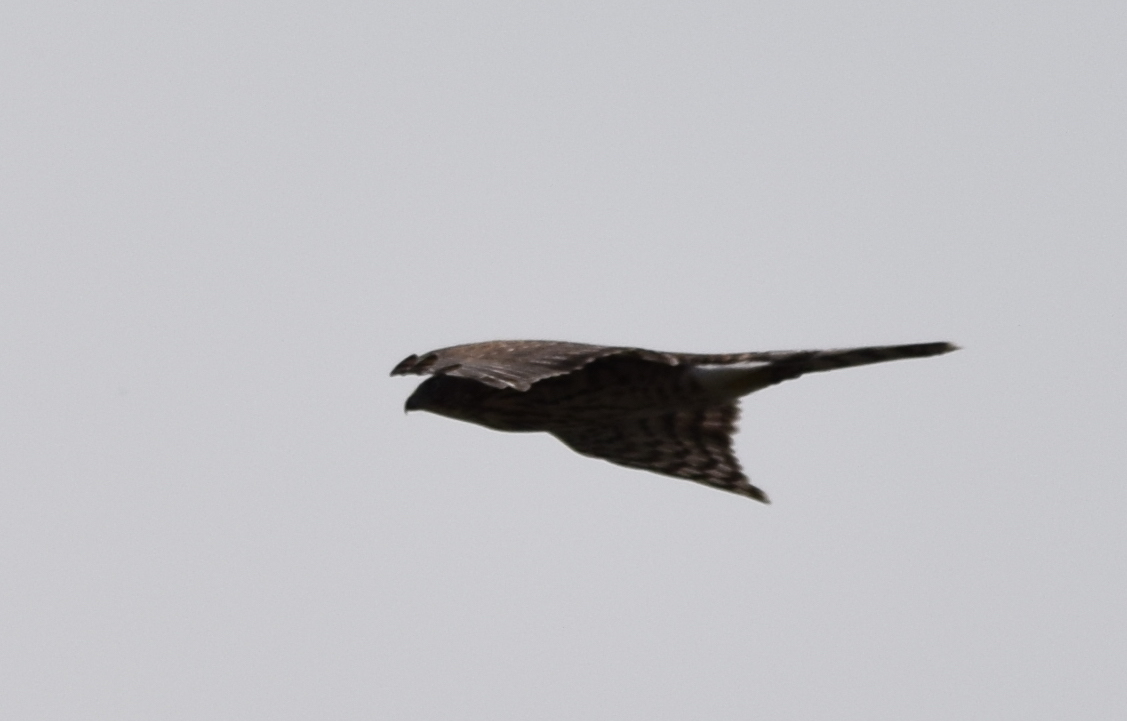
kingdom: Animalia
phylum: Chordata
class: Aves
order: Accipitriformes
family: Accipitridae
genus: Accipiter
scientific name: Accipiter cooperii
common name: Cooper's hawk
